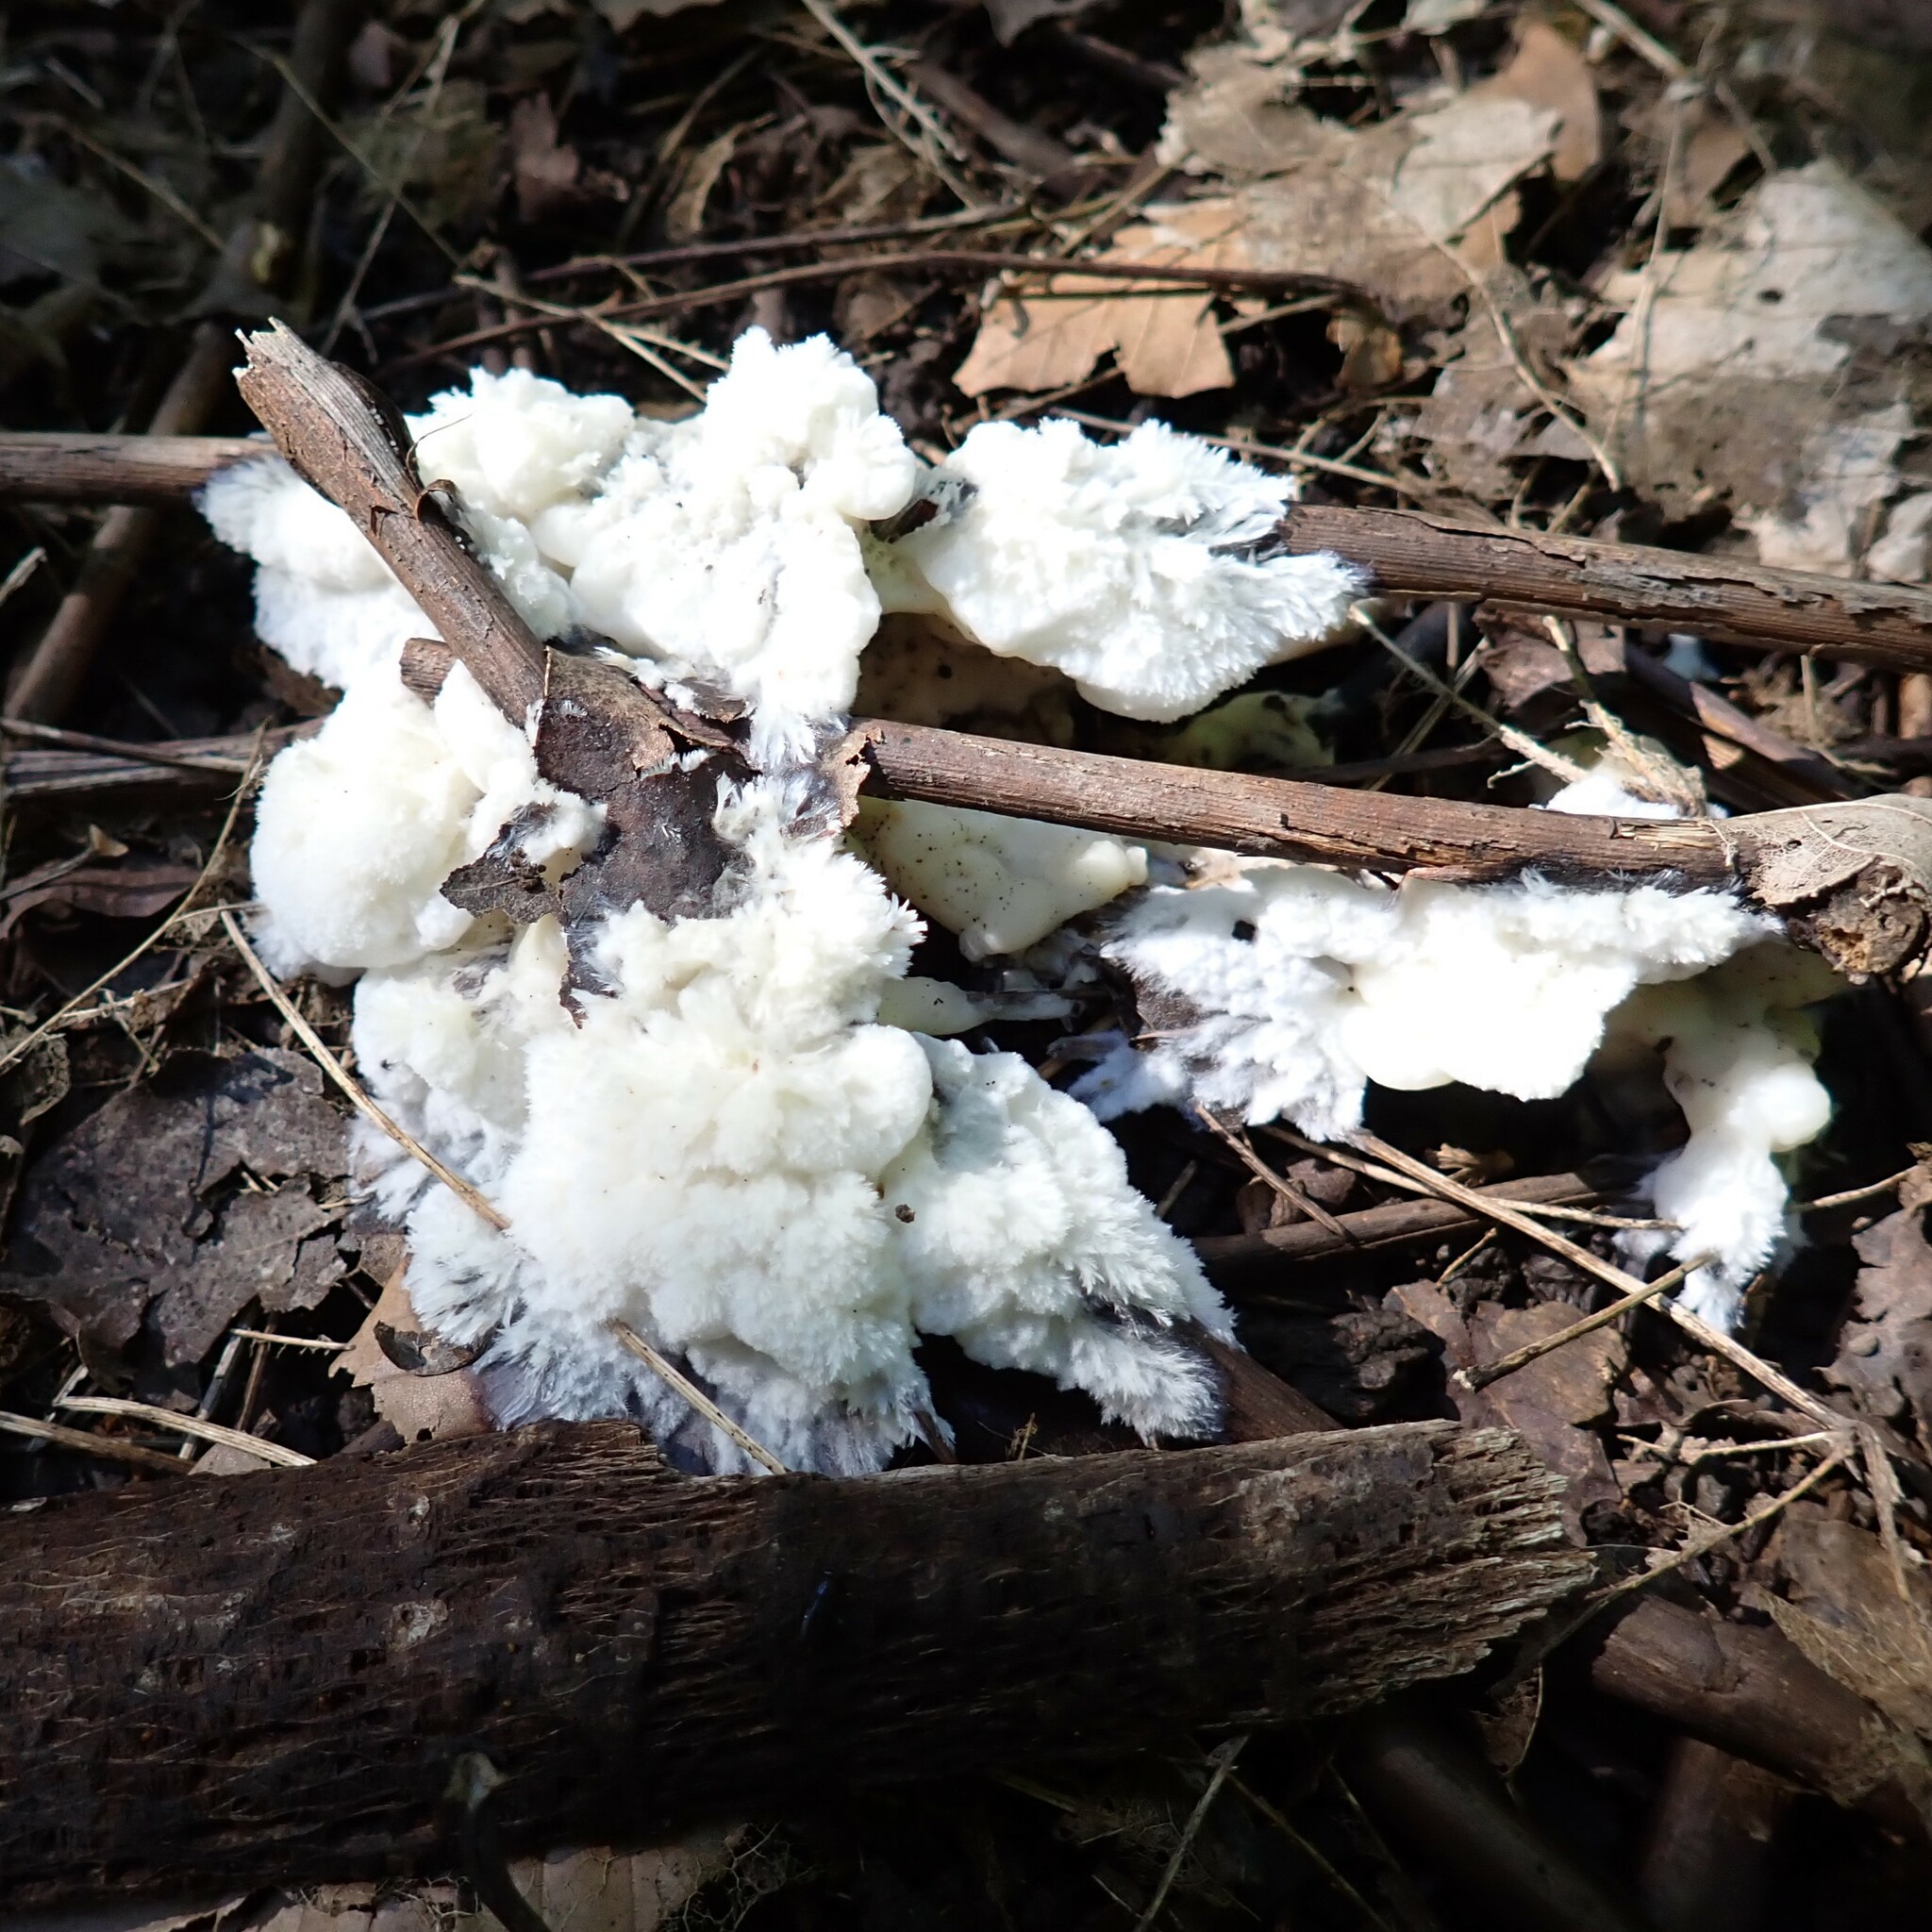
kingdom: Fungi
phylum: Basidiomycota
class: Agaricomycetes
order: Sebacinales
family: Sebacinaceae
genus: Sebacina
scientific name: Sebacina incrustans
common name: Enveloping crust
